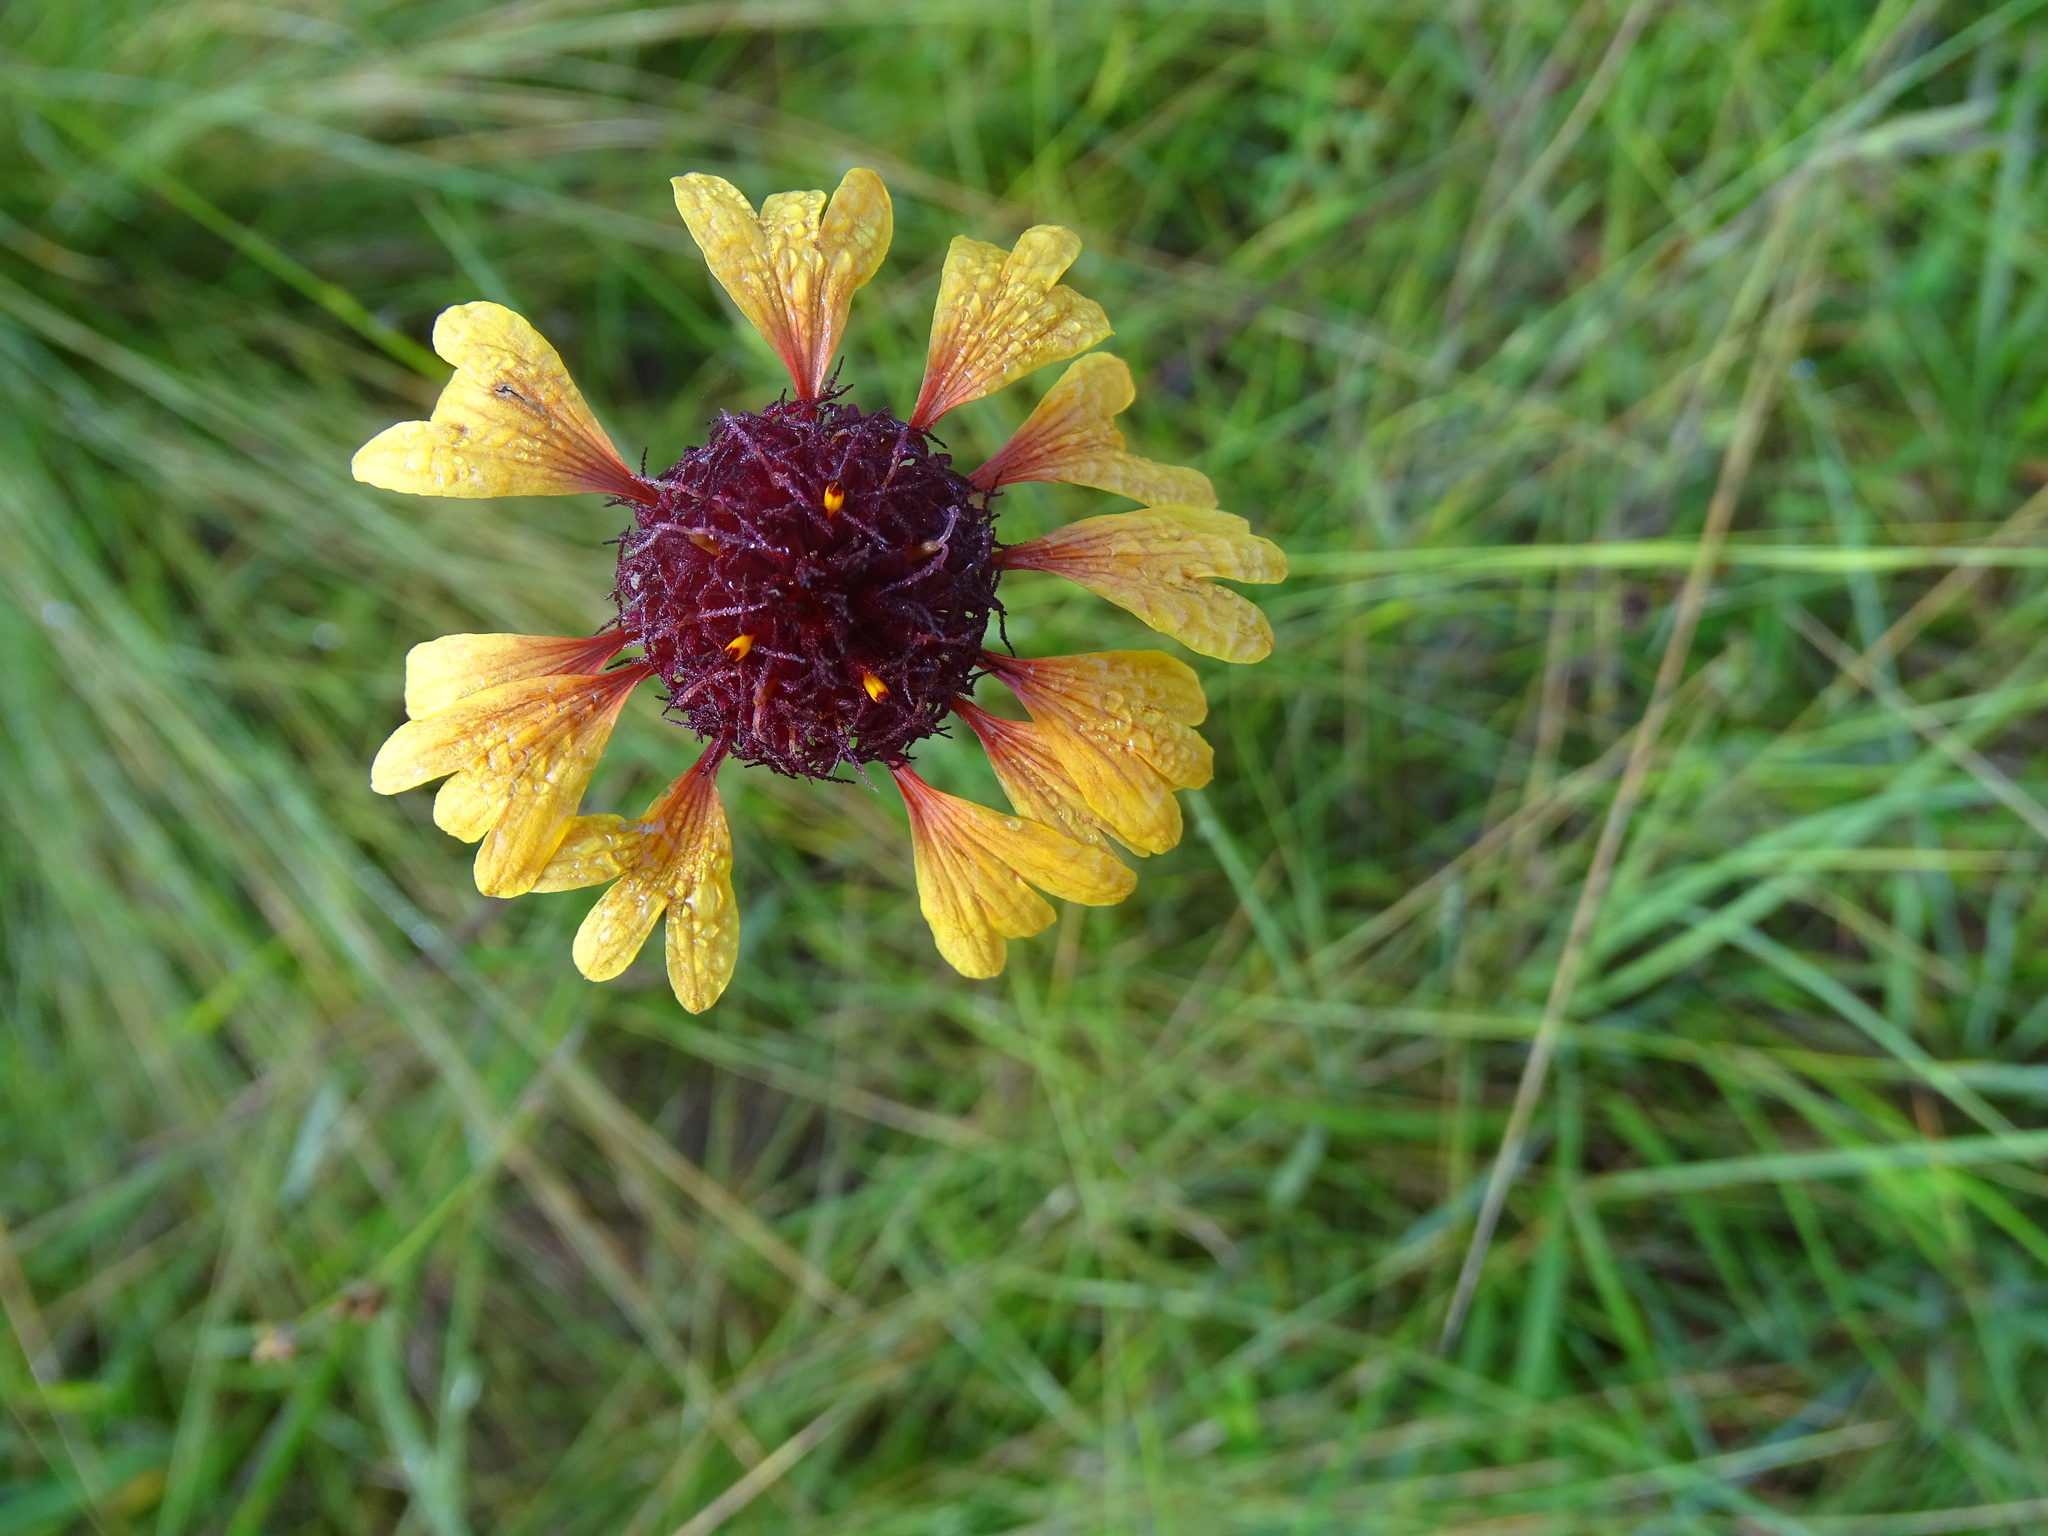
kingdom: Plantae
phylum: Tracheophyta
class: Magnoliopsida
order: Asterales
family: Asteraceae
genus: Gaillardia
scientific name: Gaillardia aestivalis
